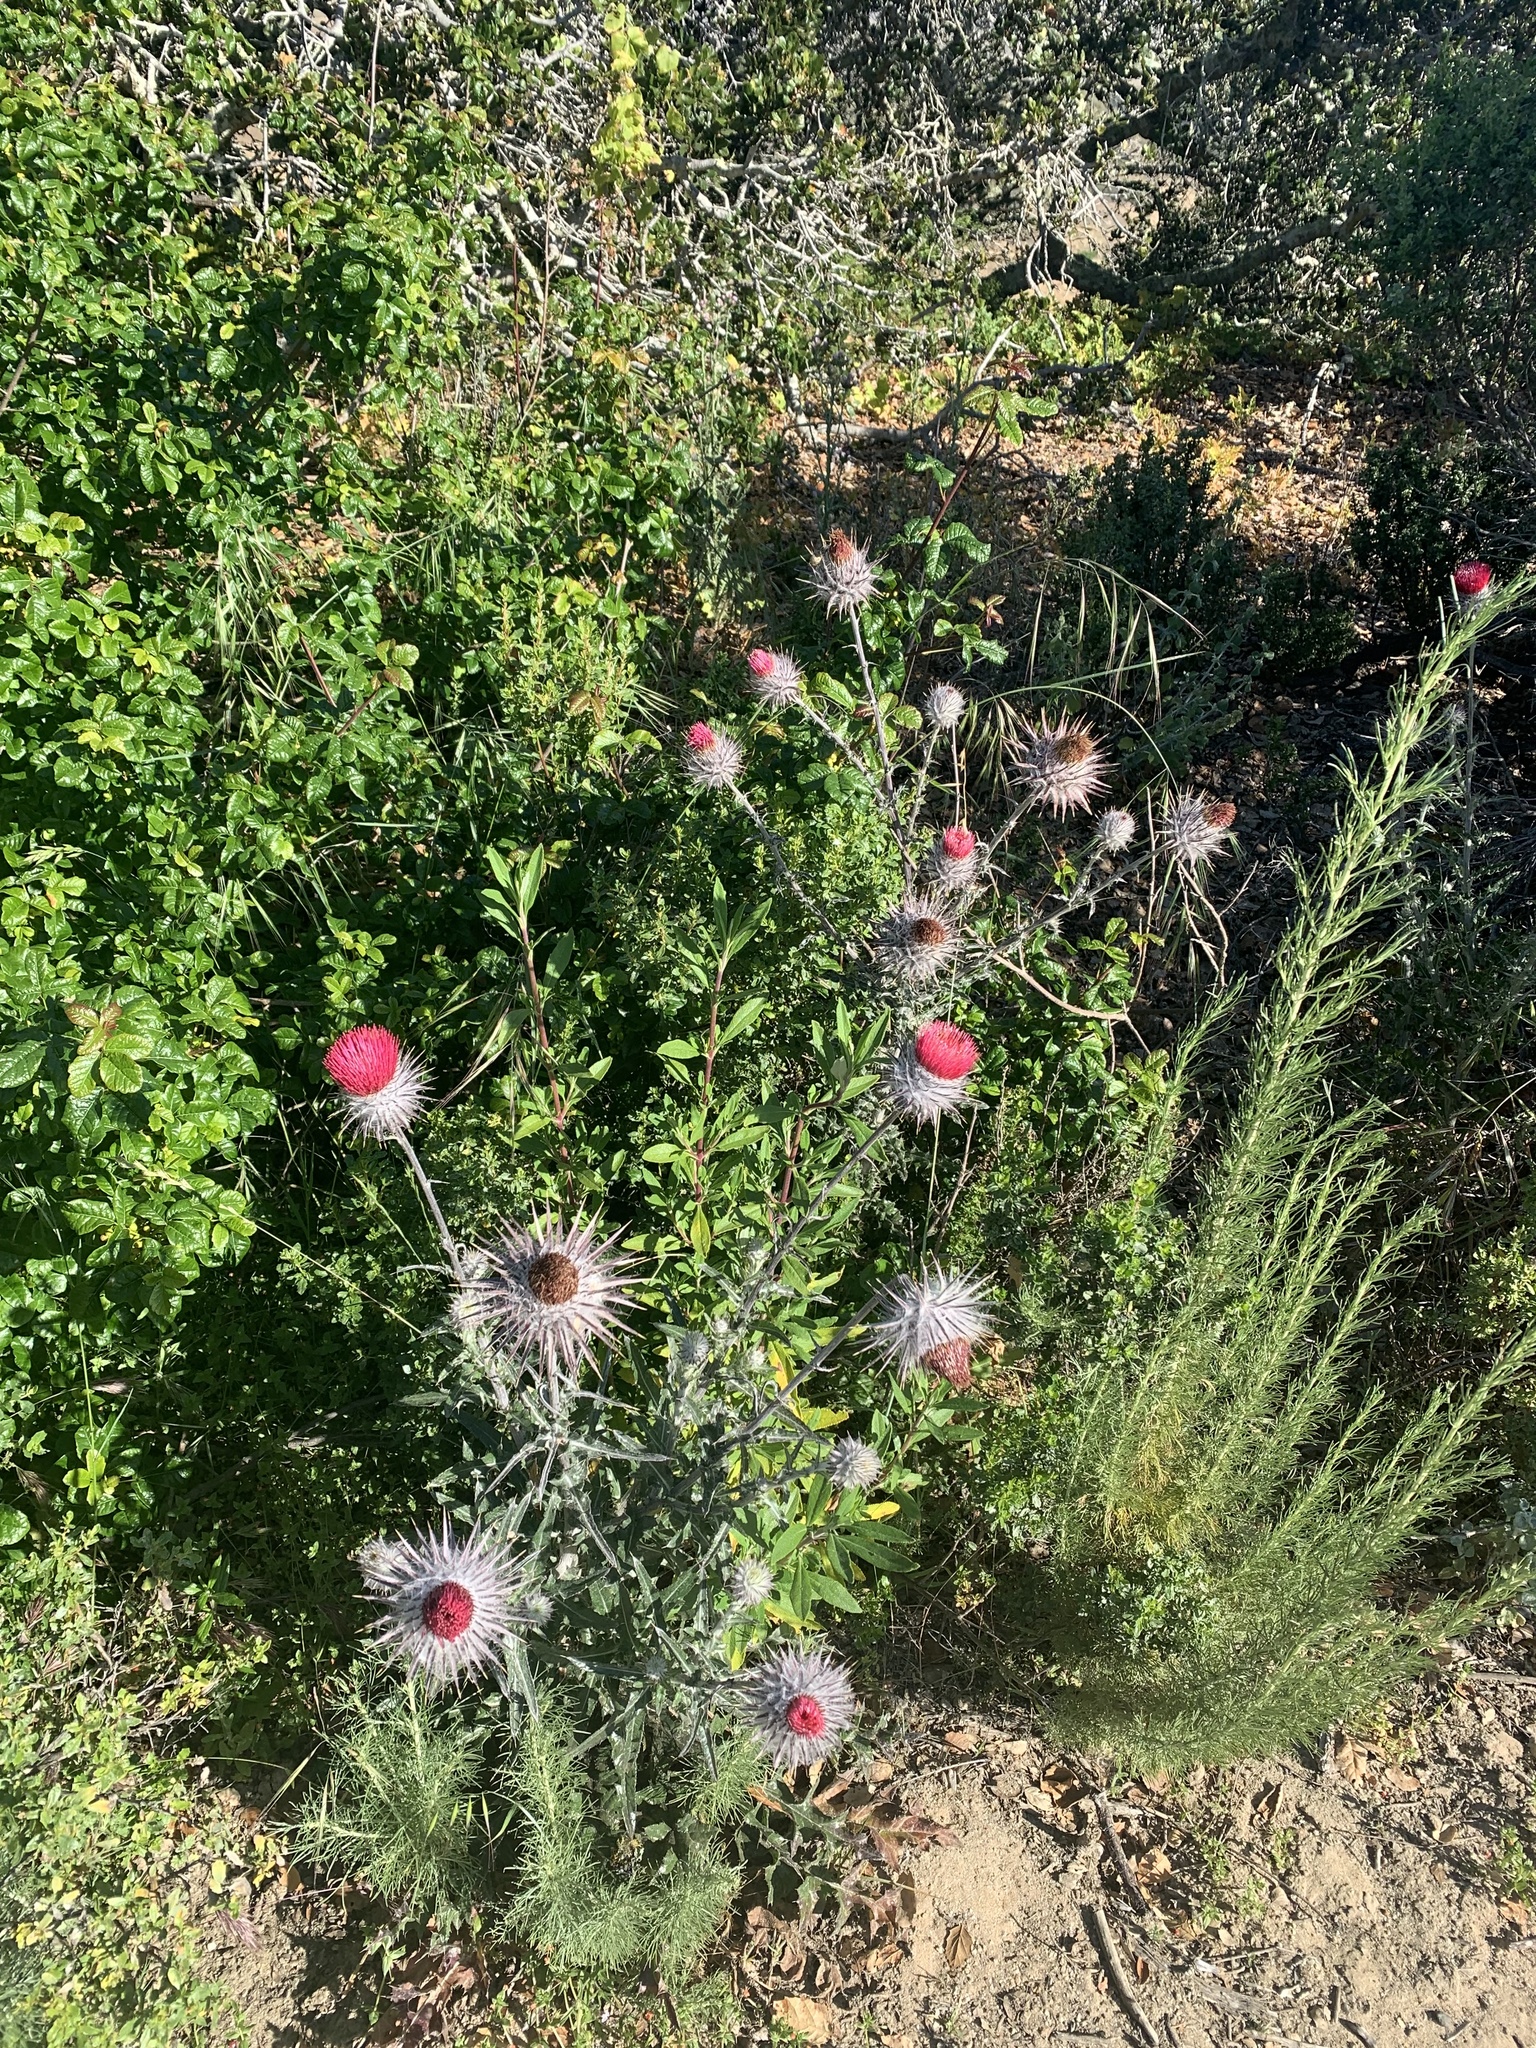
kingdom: Plantae
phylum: Tracheophyta
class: Magnoliopsida
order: Asterales
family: Asteraceae
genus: Cirsium
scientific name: Cirsium occidentale
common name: Western thistle
